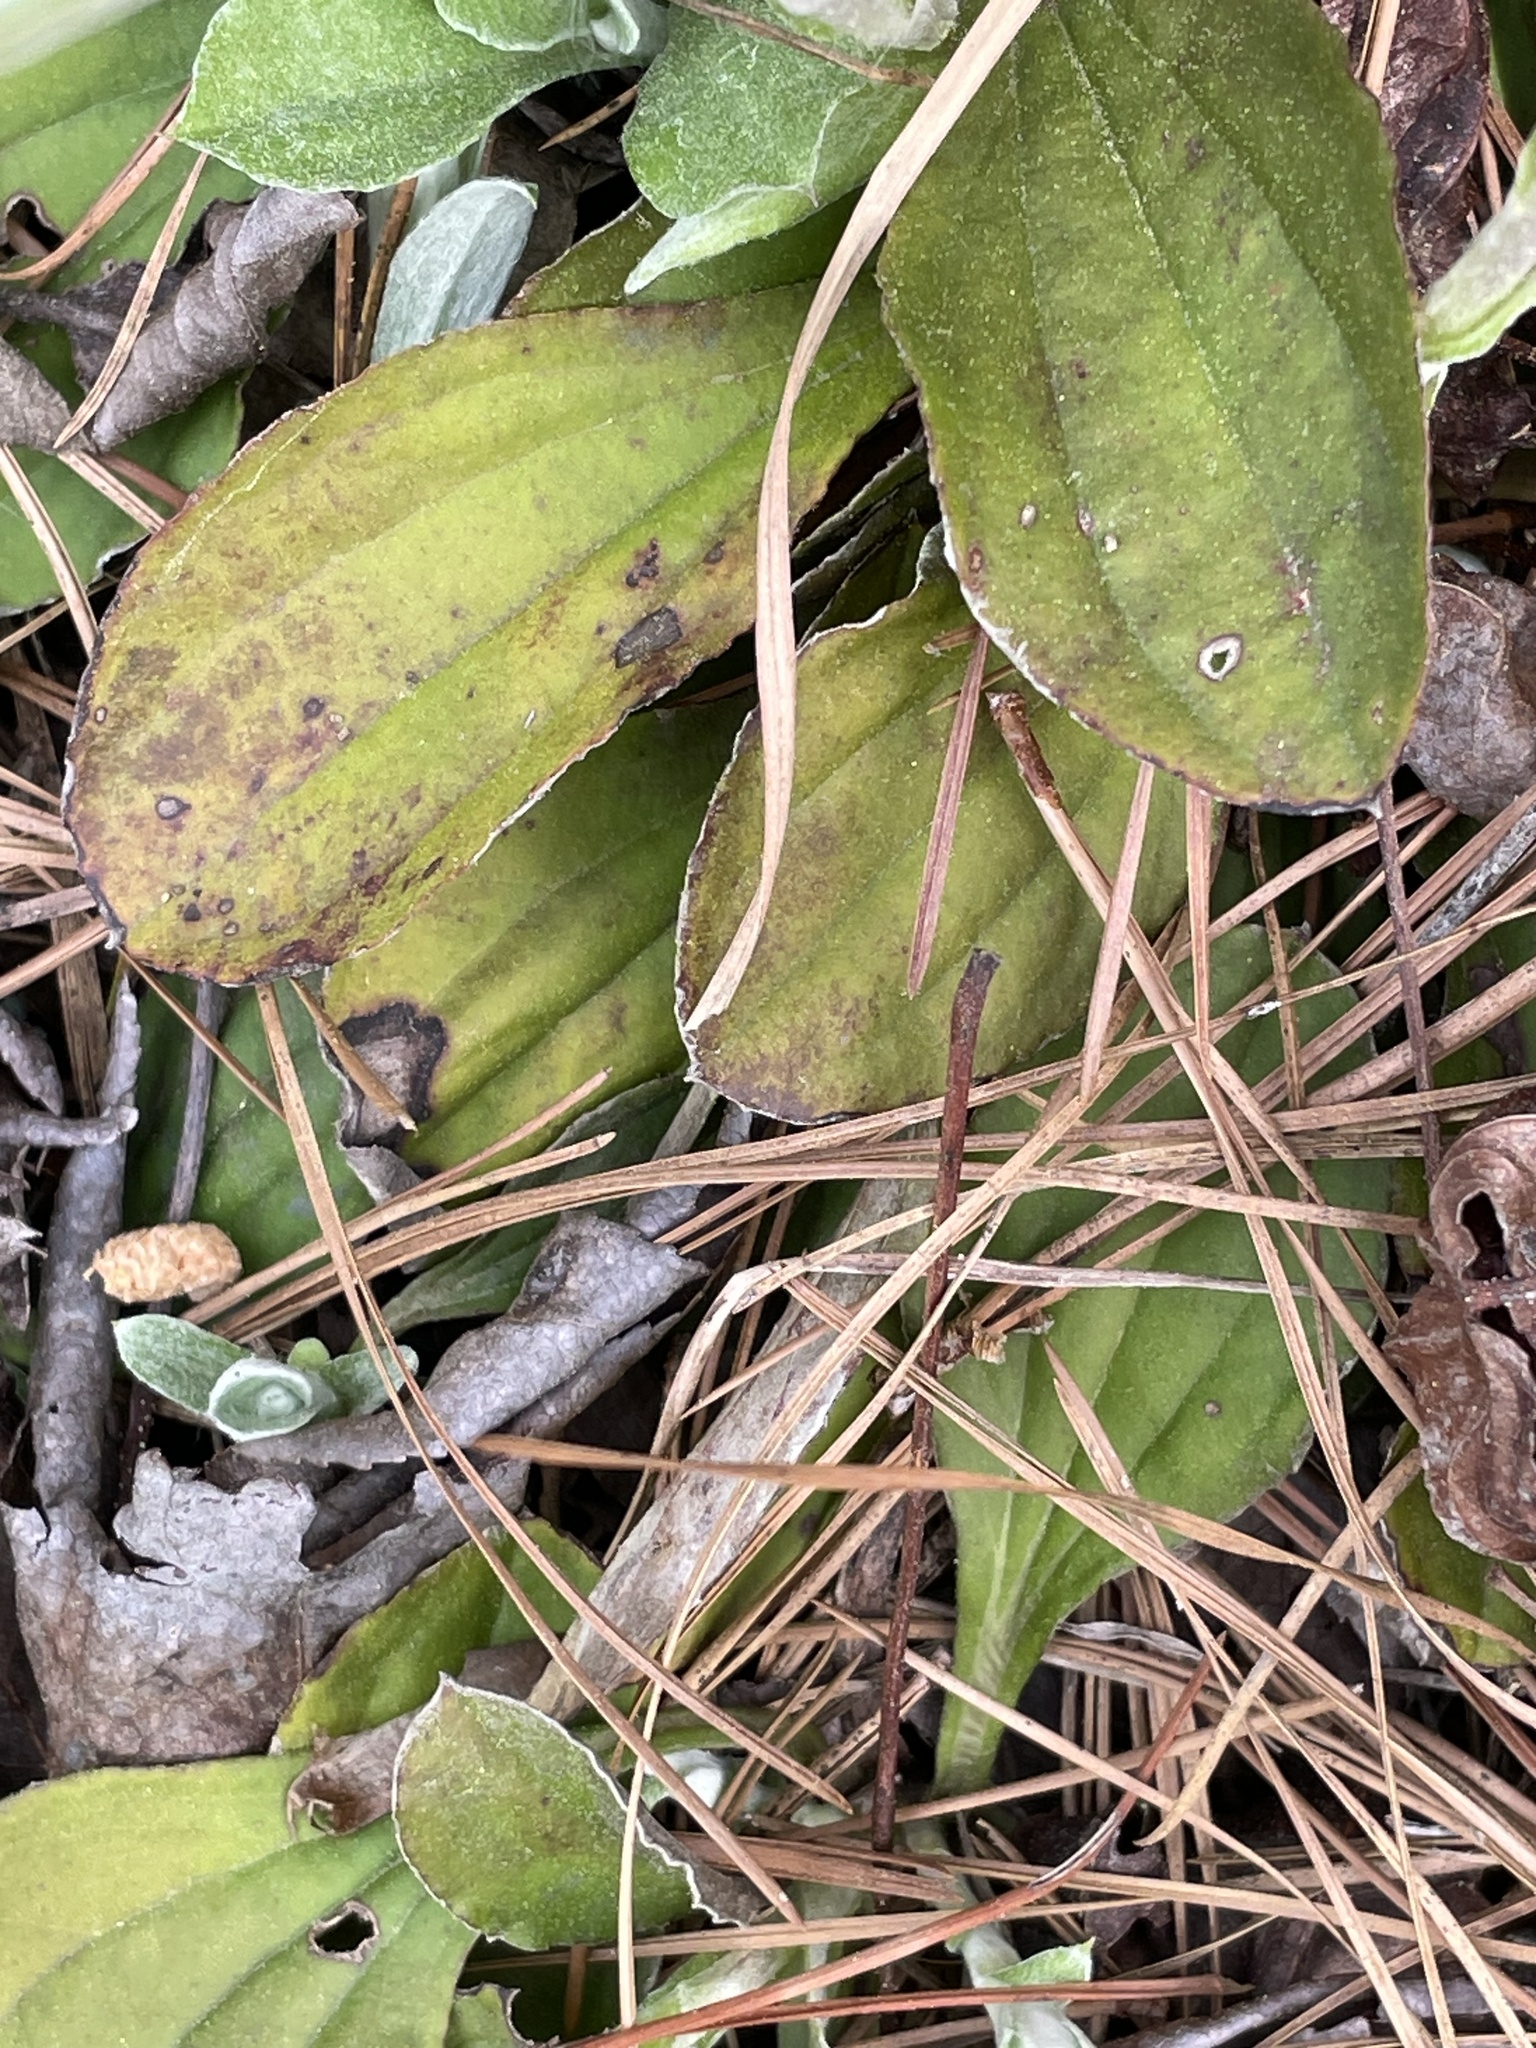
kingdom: Plantae
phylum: Tracheophyta
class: Magnoliopsida
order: Asterales
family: Asteraceae
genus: Antennaria
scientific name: Antennaria parlinii
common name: Parlin's pussytoes
